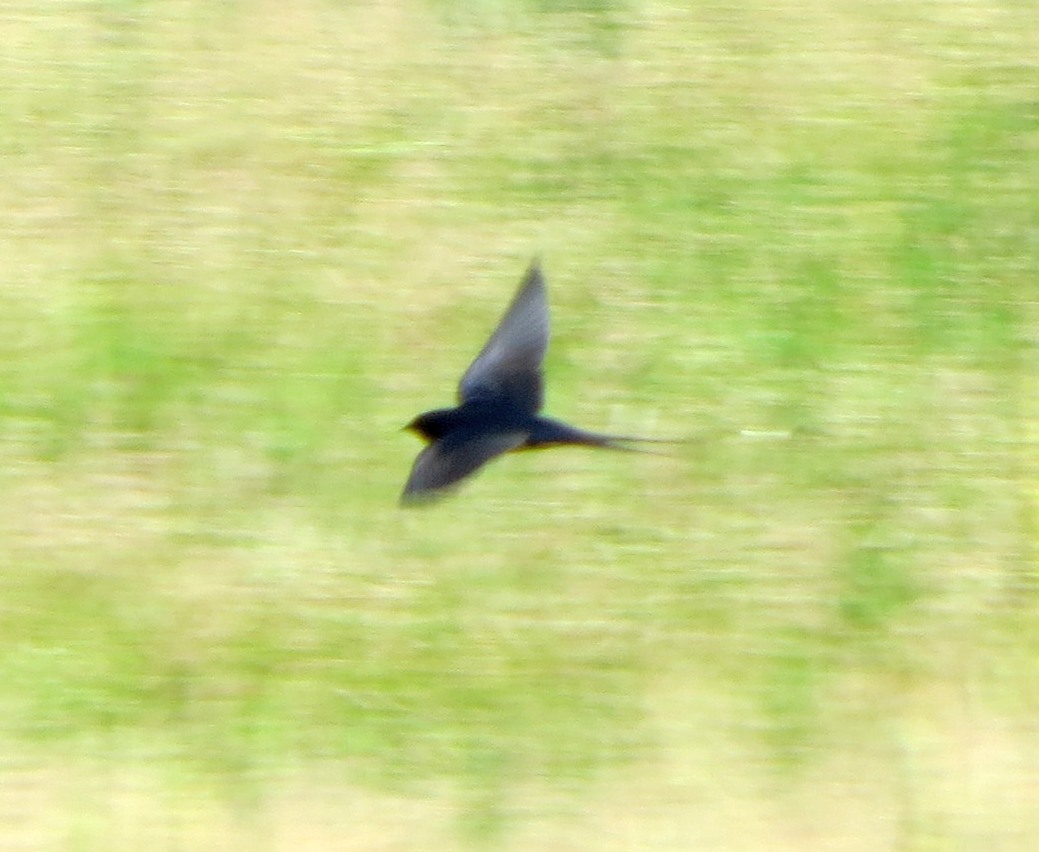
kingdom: Animalia
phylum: Chordata
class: Aves
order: Passeriformes
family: Hirundinidae
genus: Hirundo
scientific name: Hirundo rustica
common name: Barn swallow
